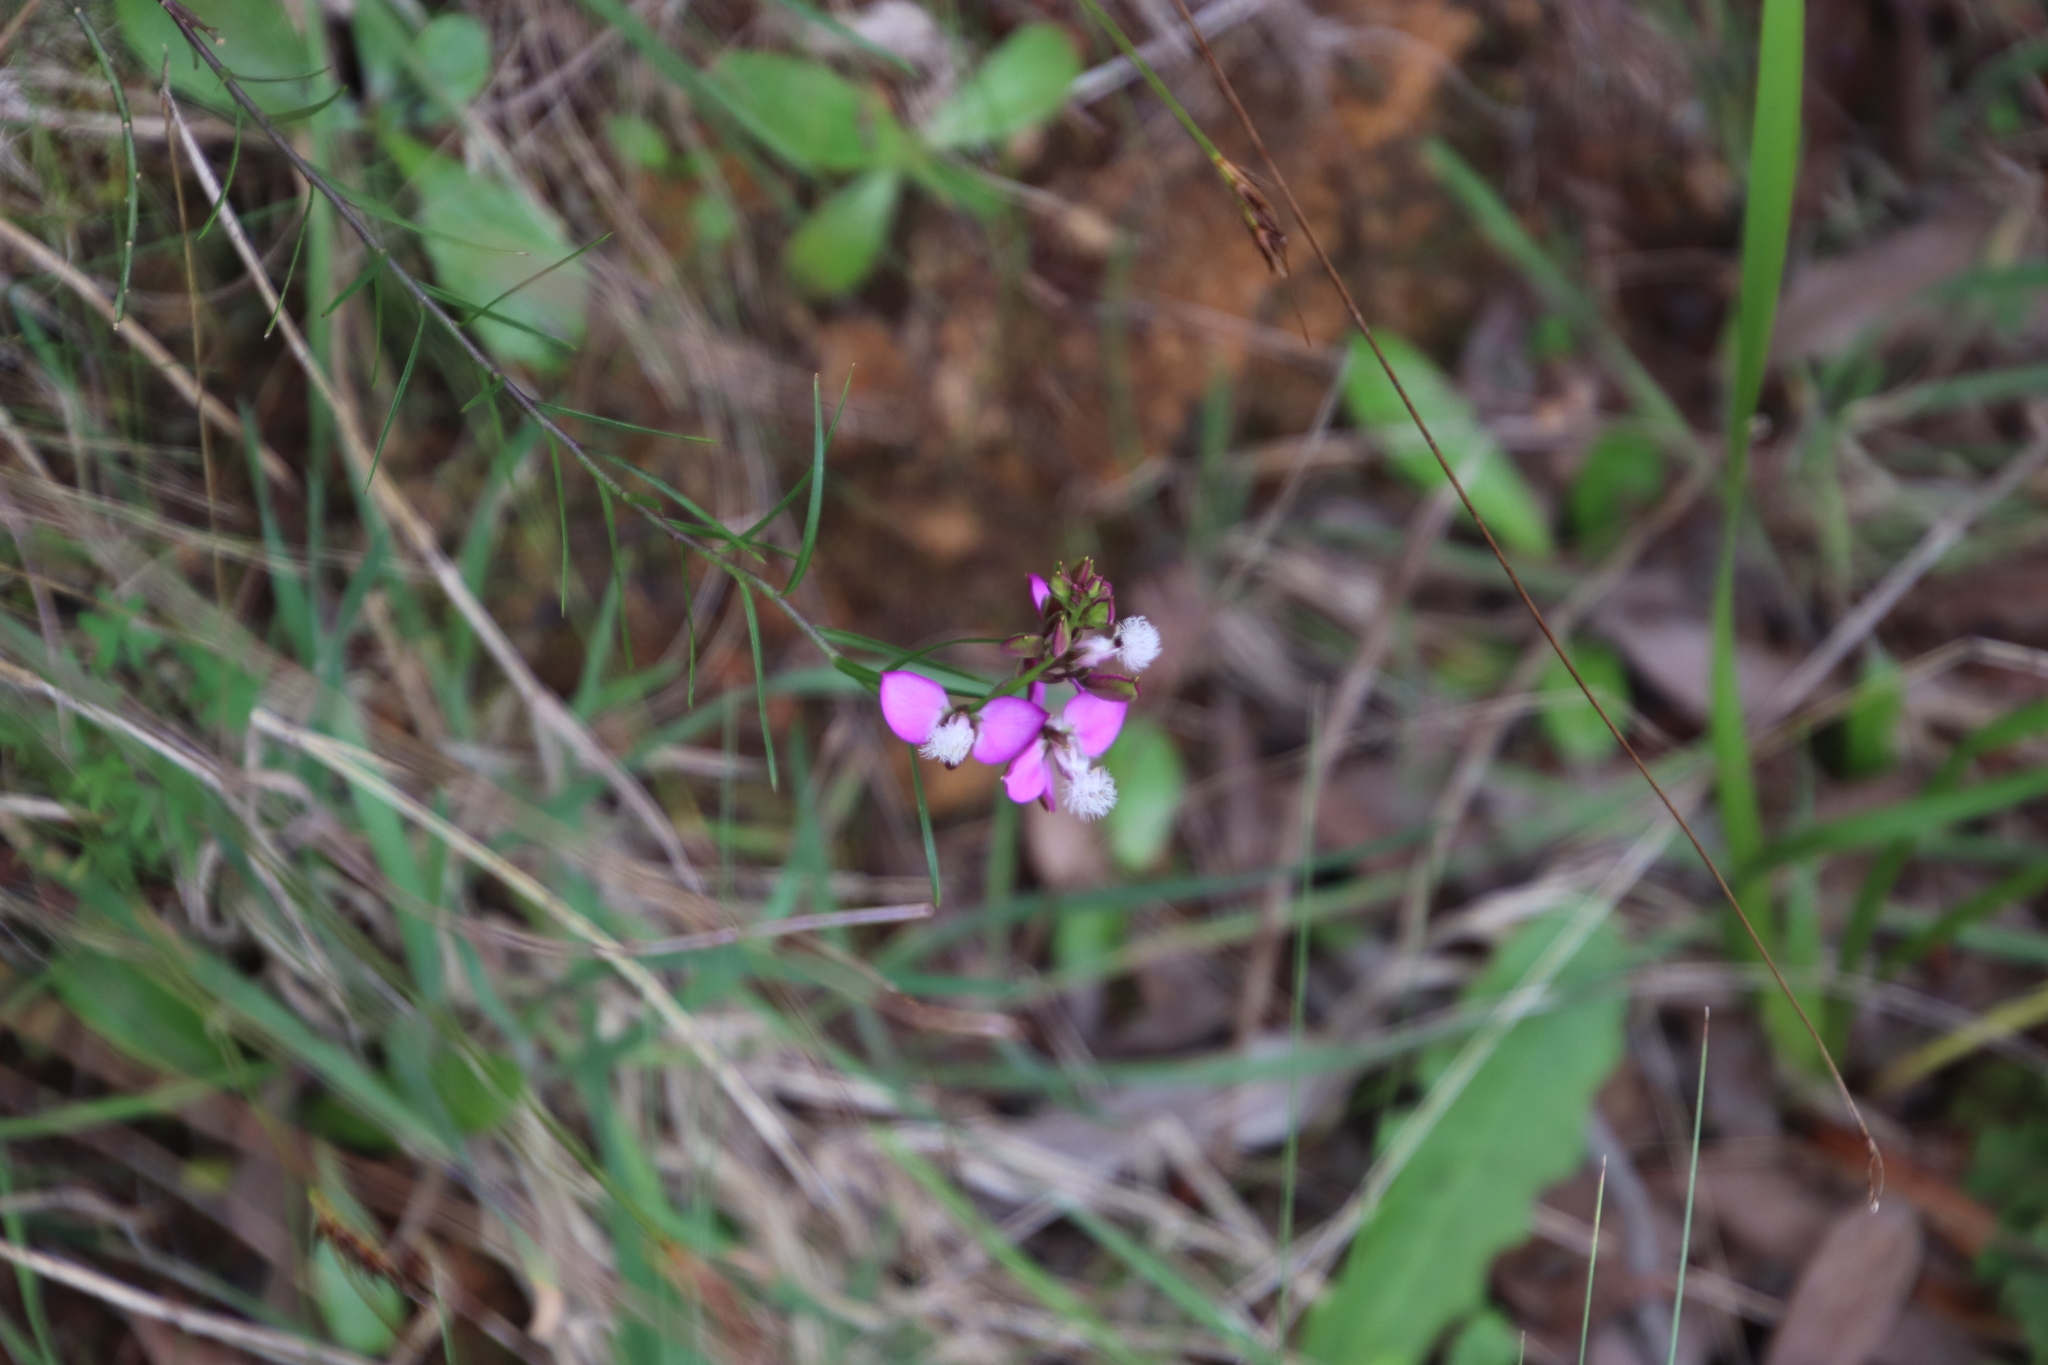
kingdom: Plantae
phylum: Tracheophyta
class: Magnoliopsida
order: Fabales
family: Polygalaceae
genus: Polygala
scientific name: Polygala bracteolata
